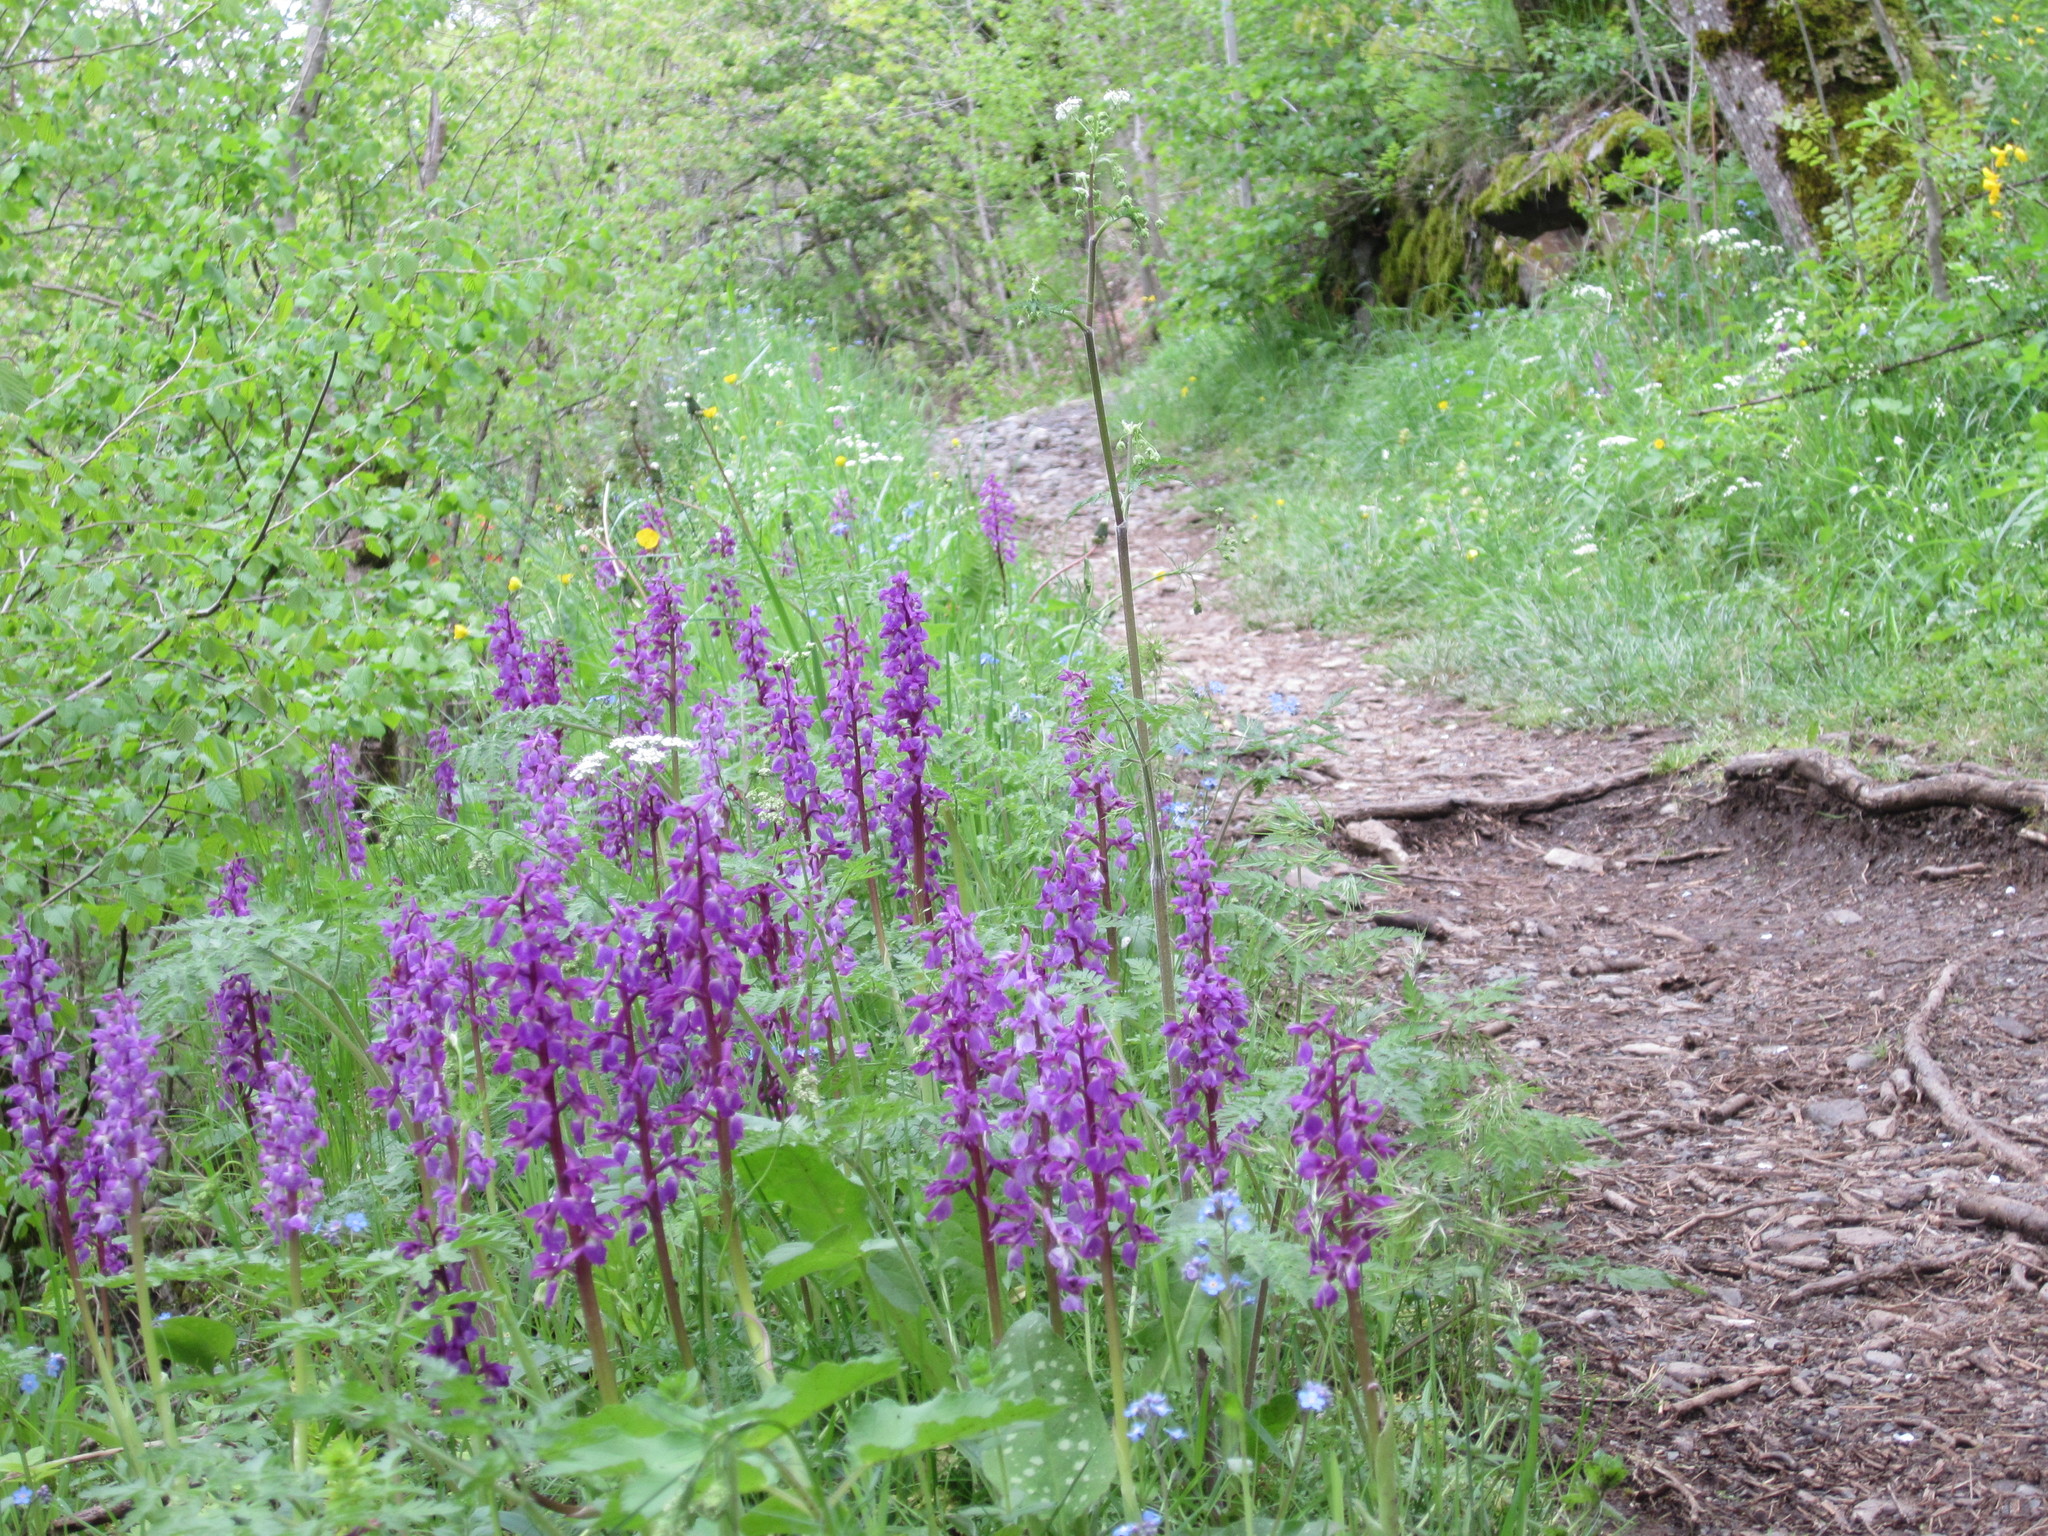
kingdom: Plantae
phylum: Tracheophyta
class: Liliopsida
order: Asparagales
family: Orchidaceae
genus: Orchis
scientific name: Orchis mascula
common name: Early-purple orchid
